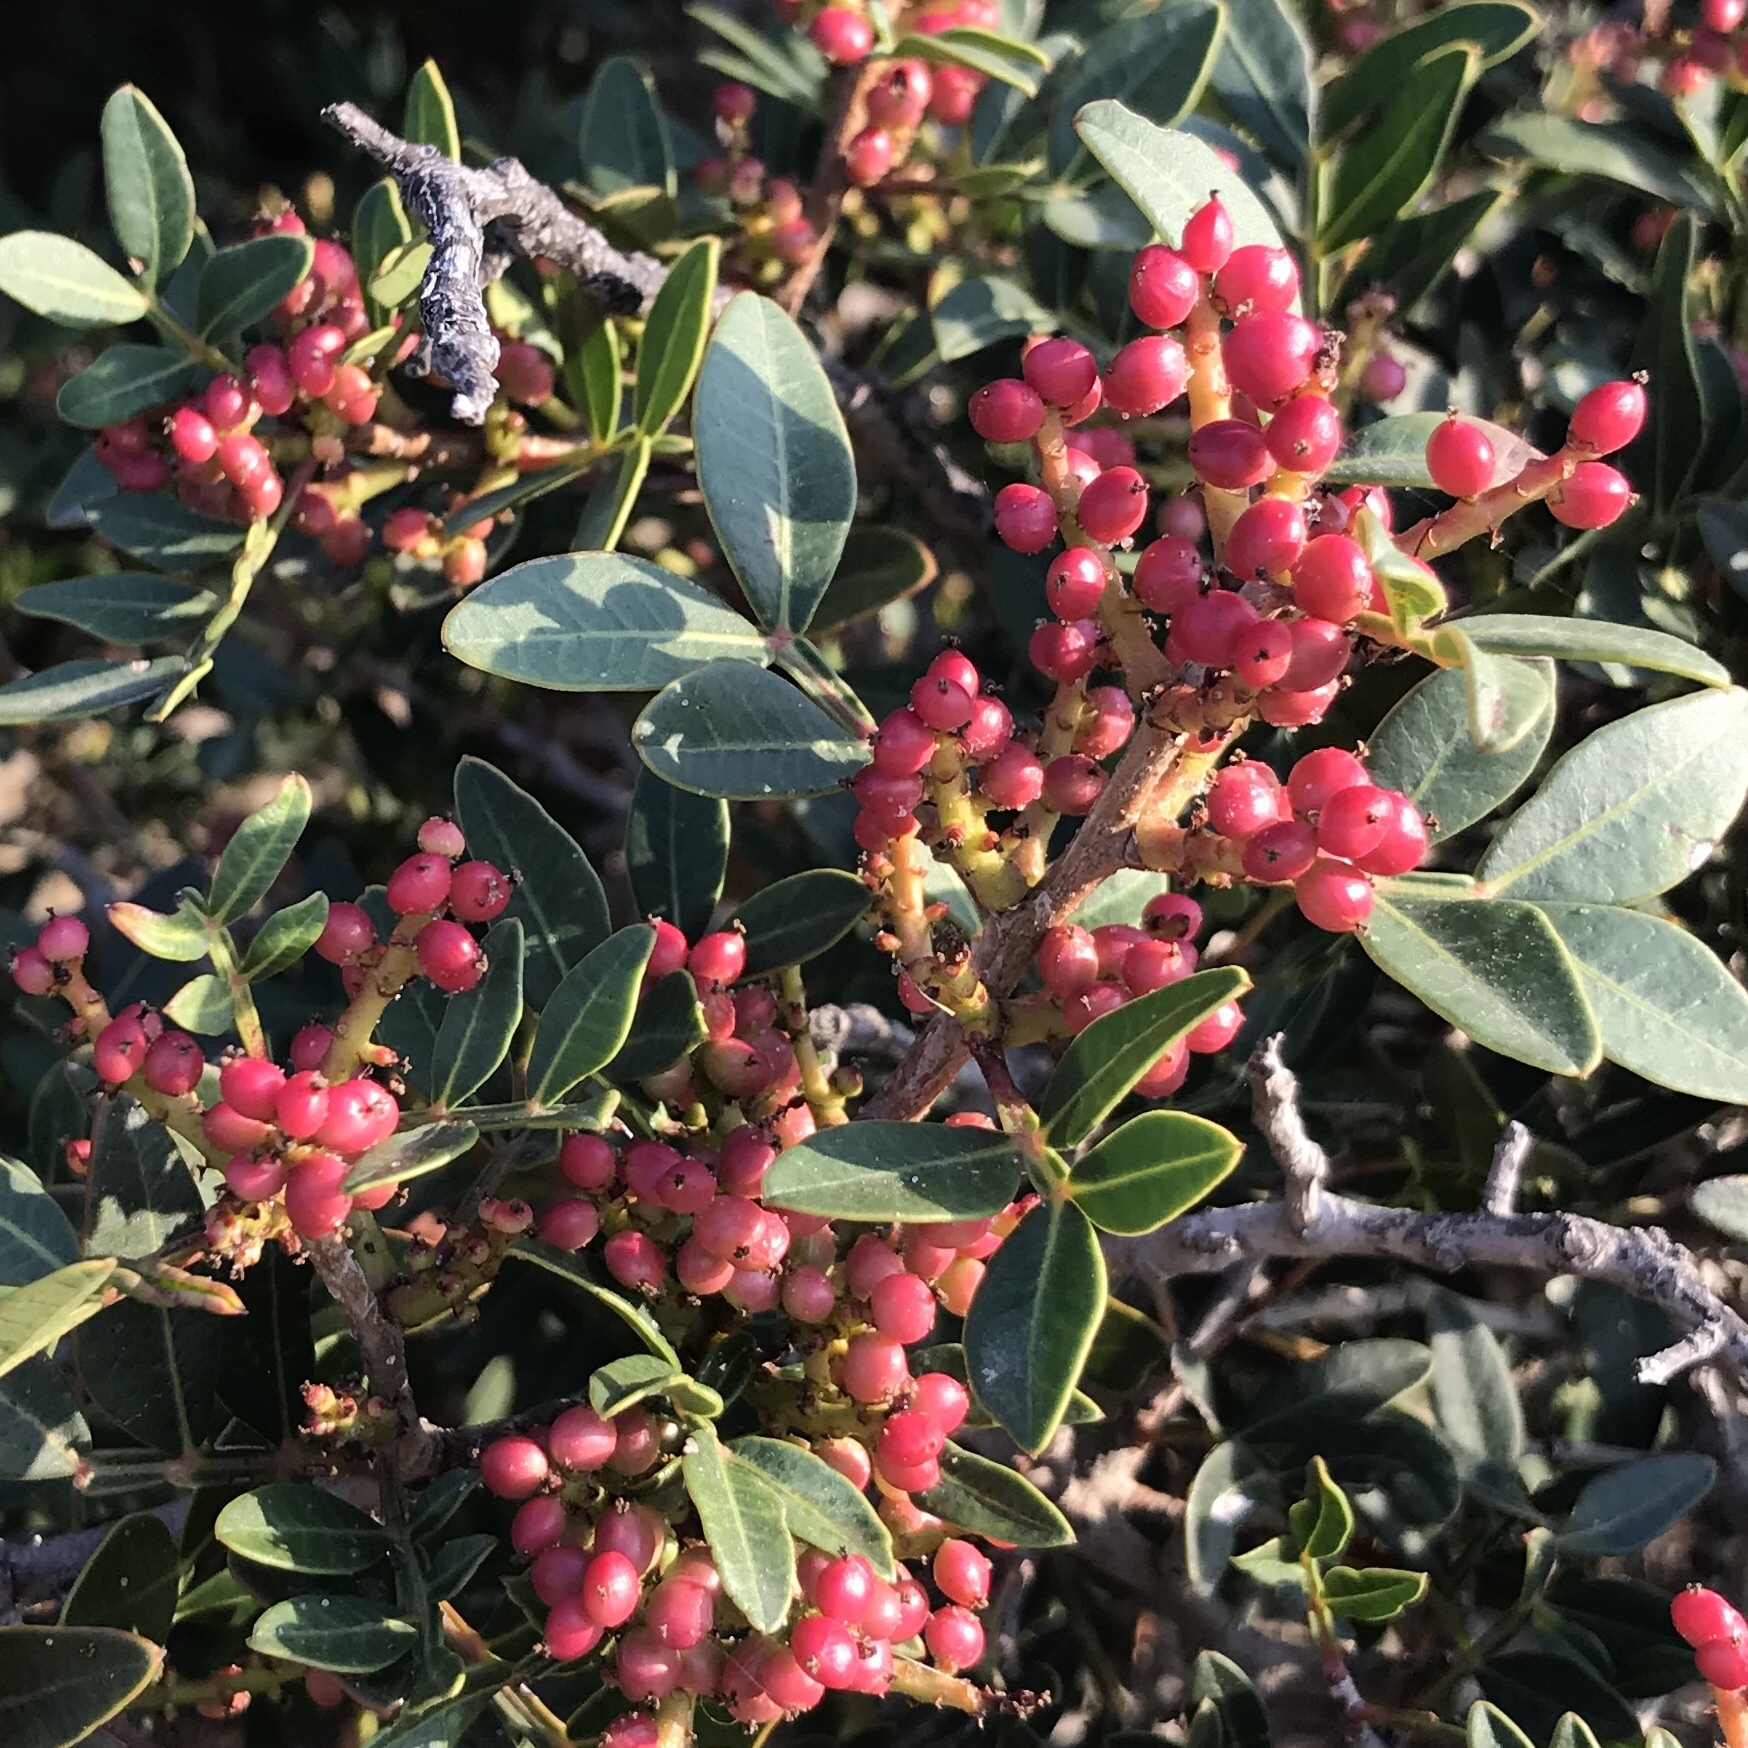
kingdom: Plantae
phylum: Tracheophyta
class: Magnoliopsida
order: Sapindales
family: Anacardiaceae
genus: Pistacia
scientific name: Pistacia lentiscus
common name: Lentisk
